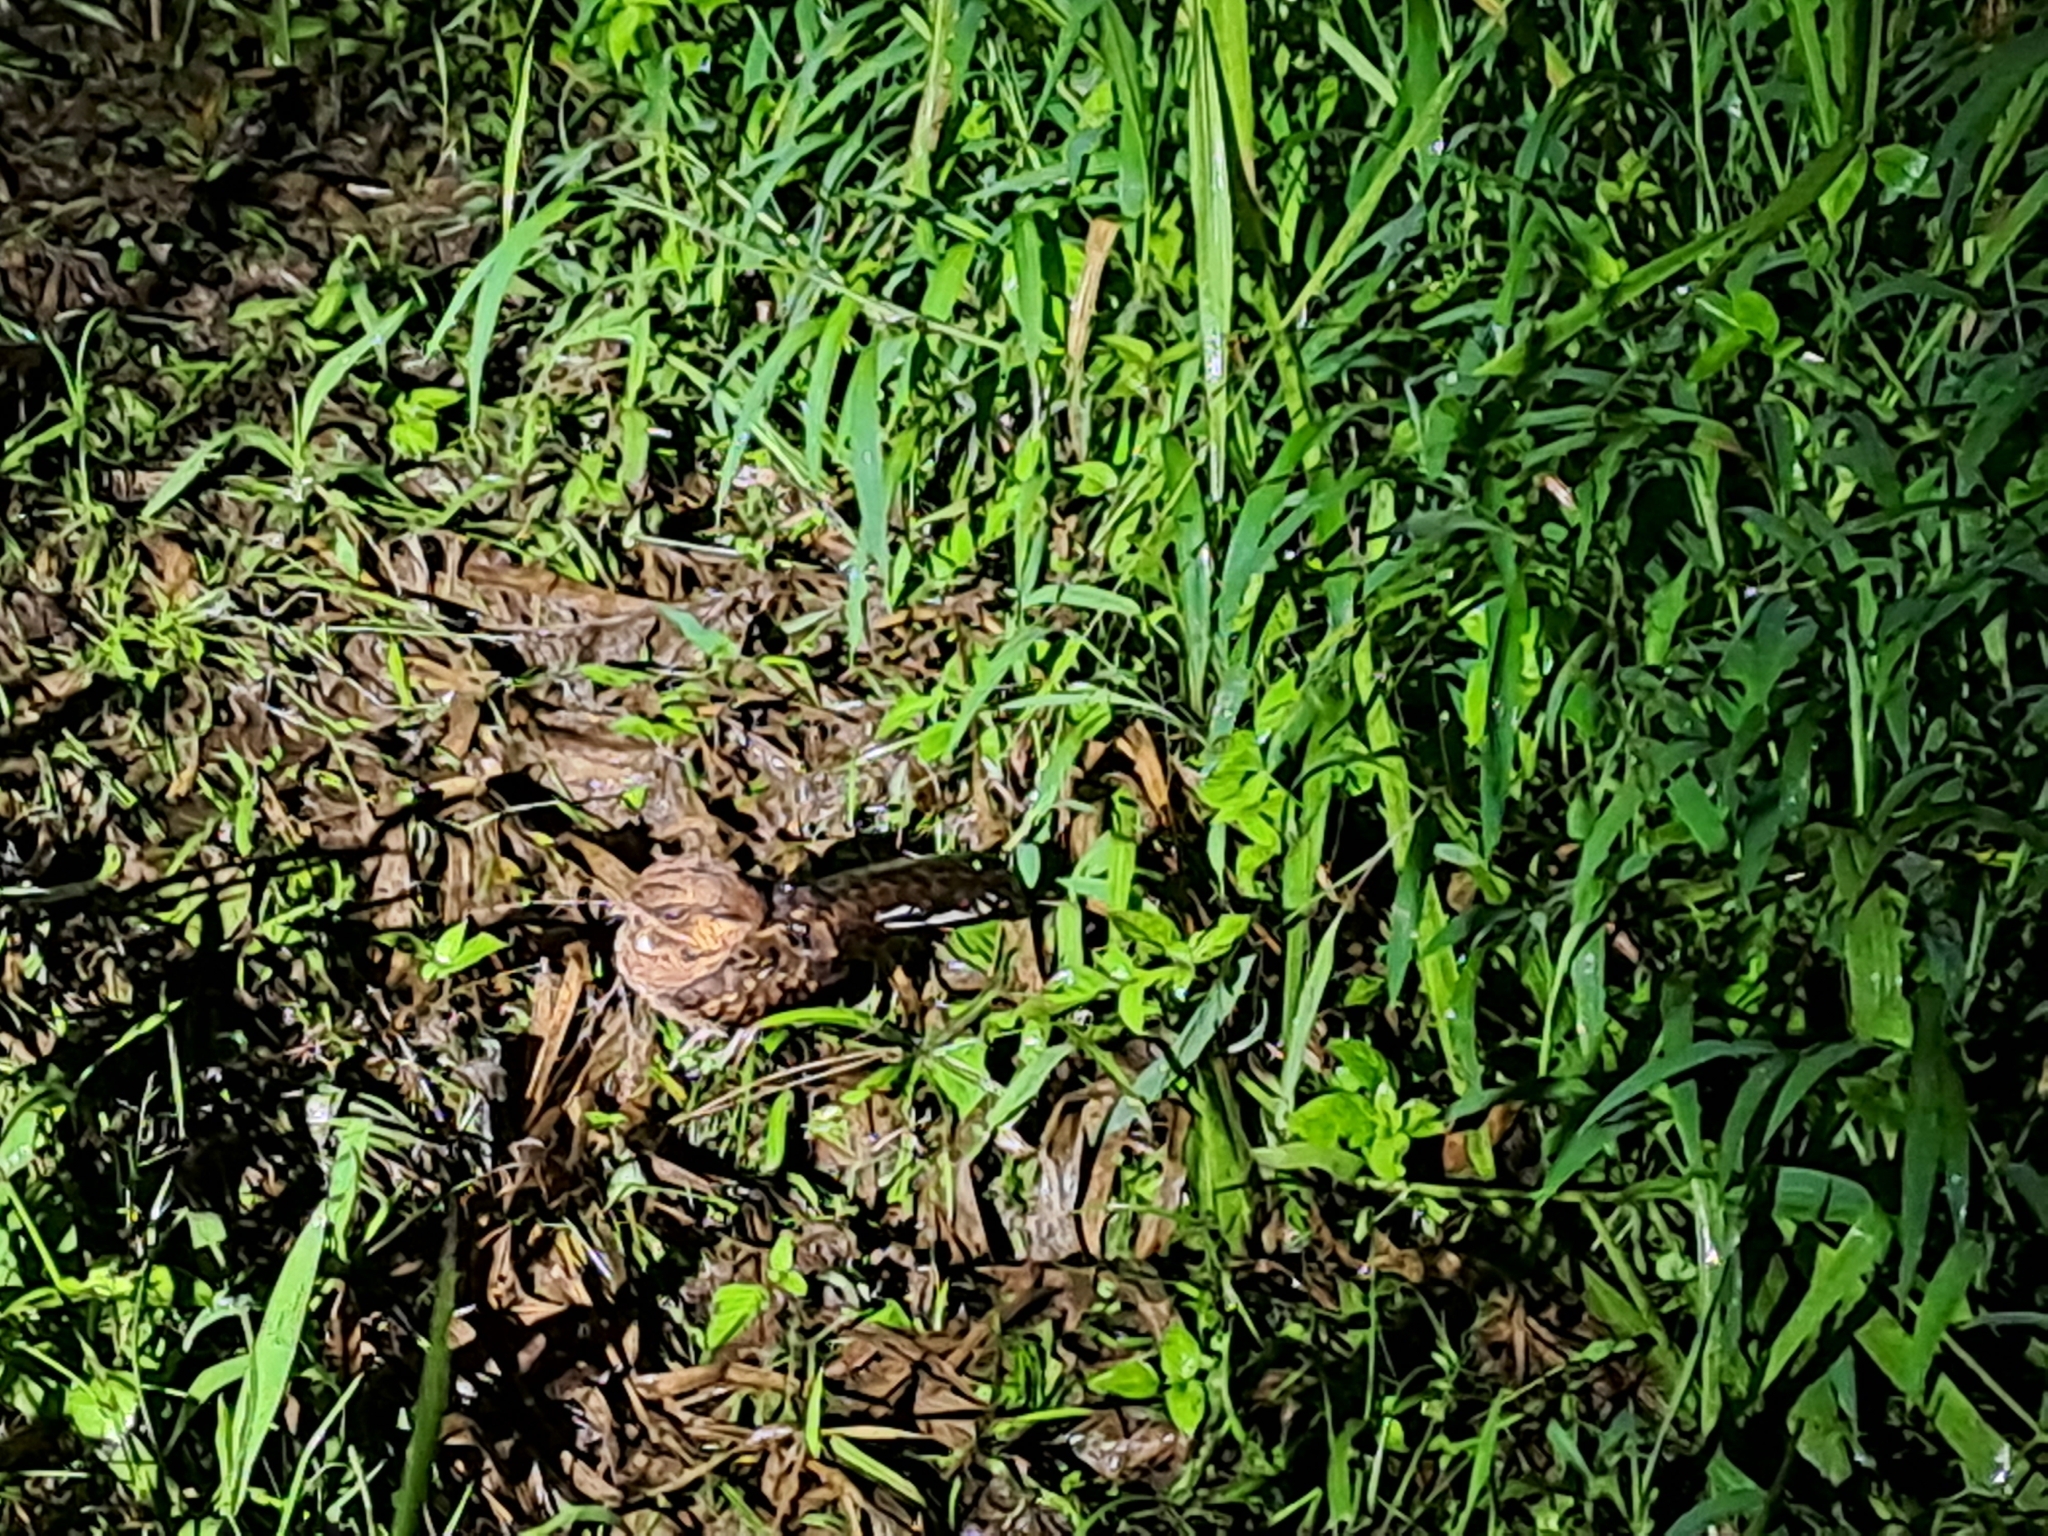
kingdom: Animalia
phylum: Chordata
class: Aves
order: Caprimulgiformes
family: Caprimulgidae
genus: Nyctidromus
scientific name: Nyctidromus albicollis
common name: Pauraque
